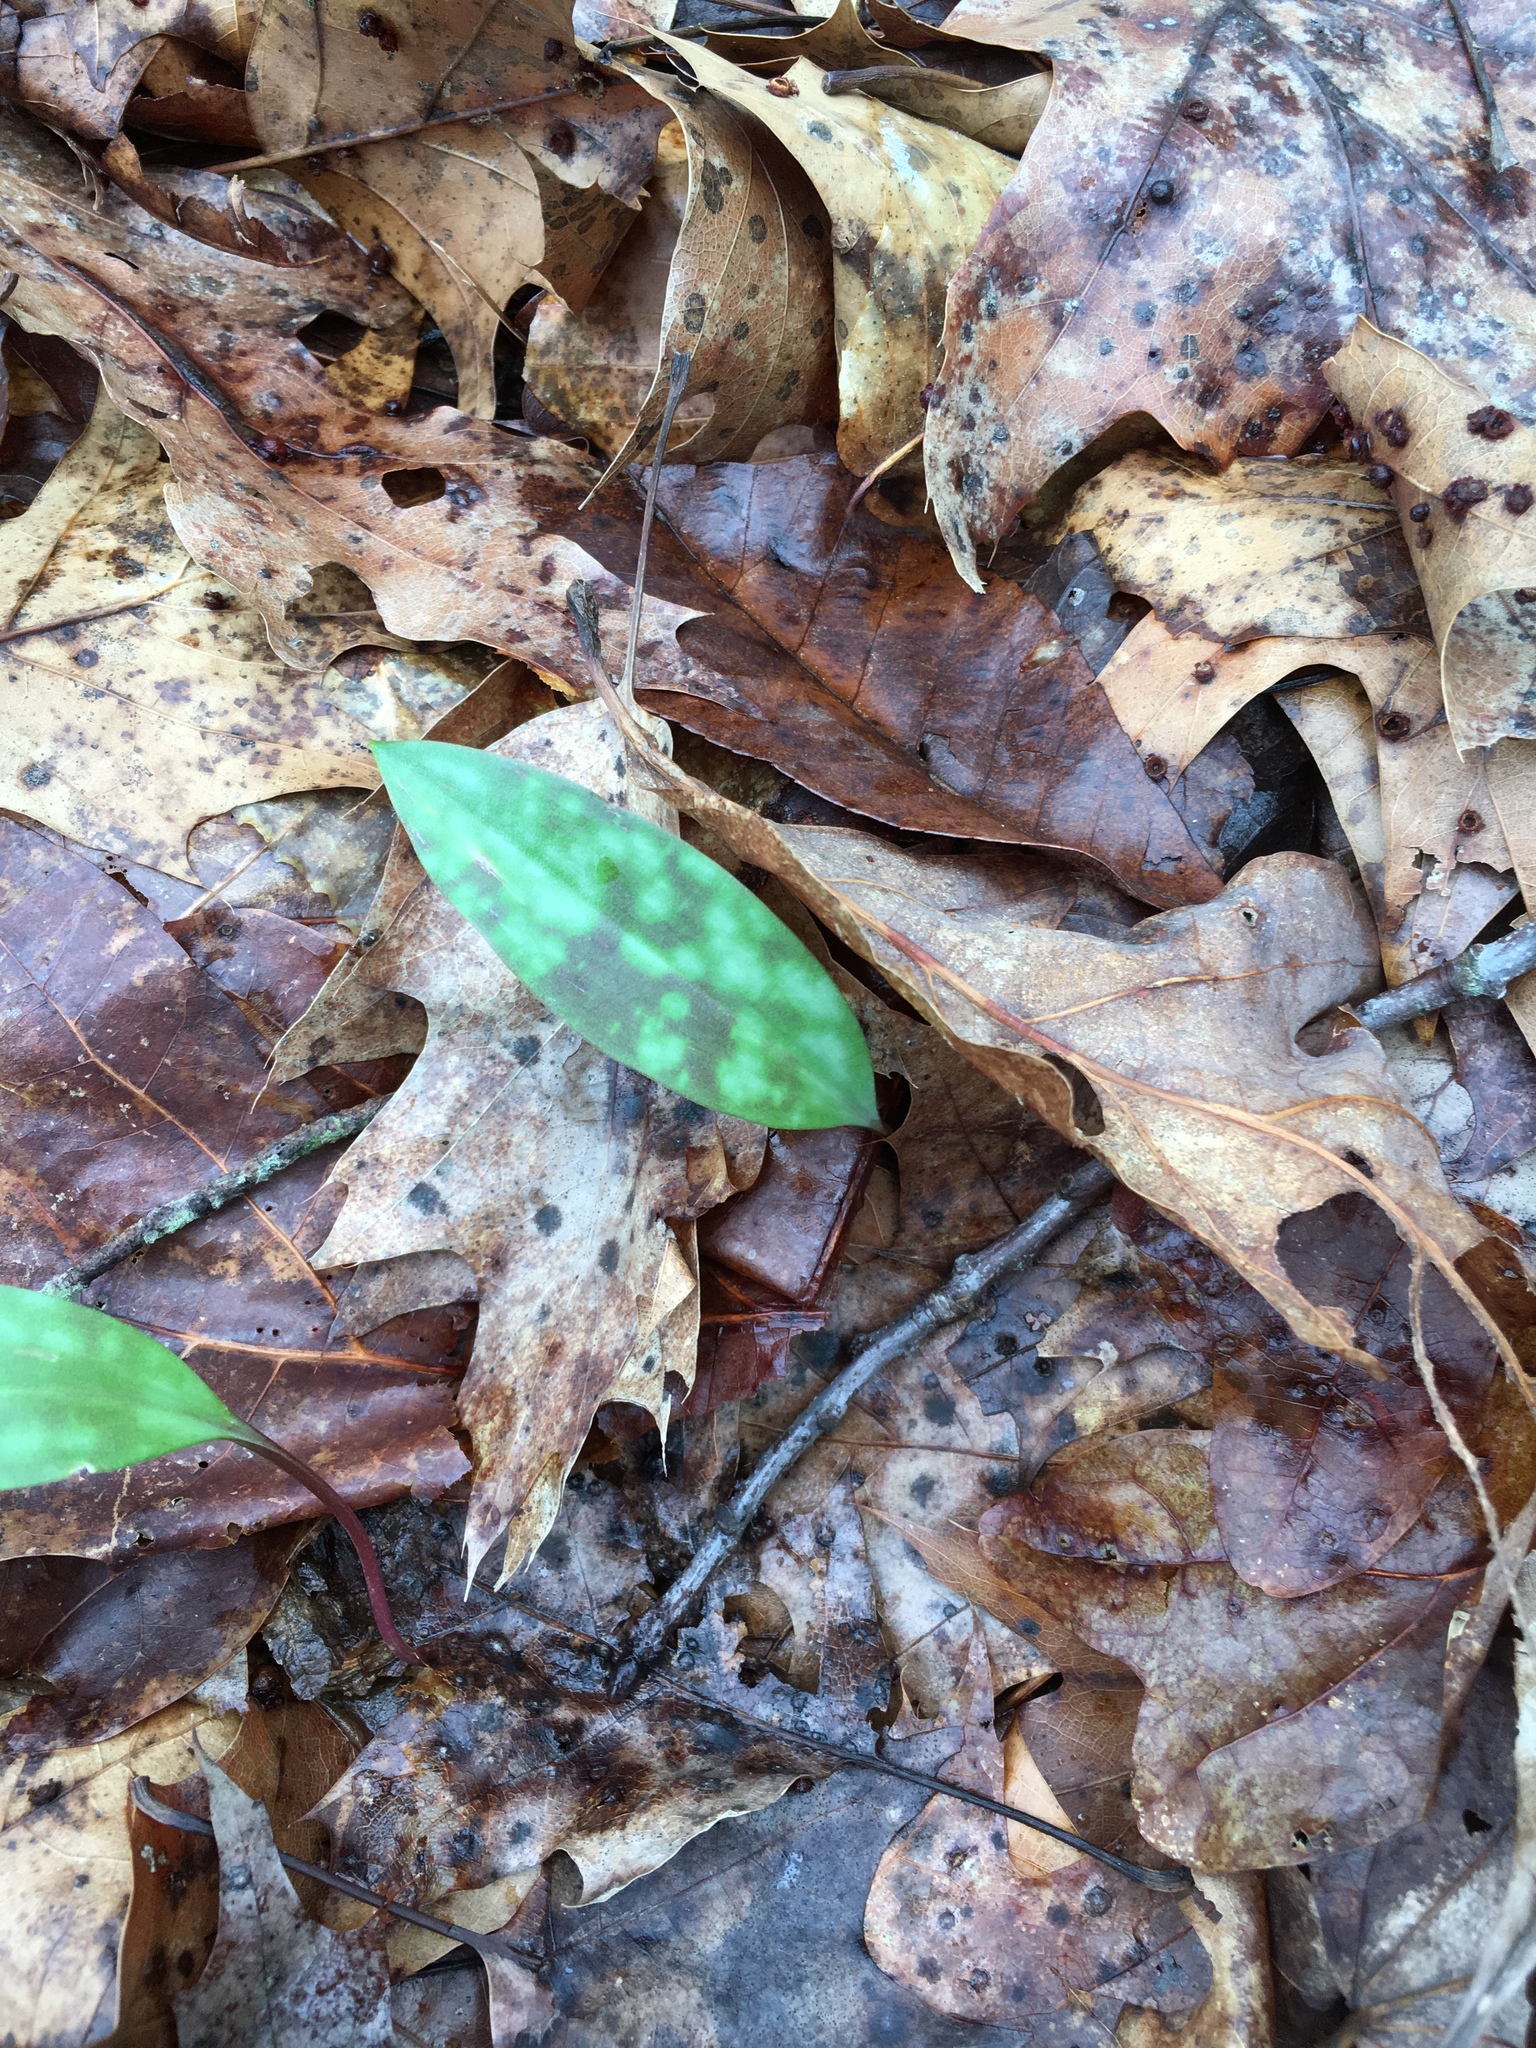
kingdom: Plantae
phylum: Tracheophyta
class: Liliopsida
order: Liliales
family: Liliaceae
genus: Erythronium
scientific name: Erythronium americanum
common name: Yellow adder's-tongue
